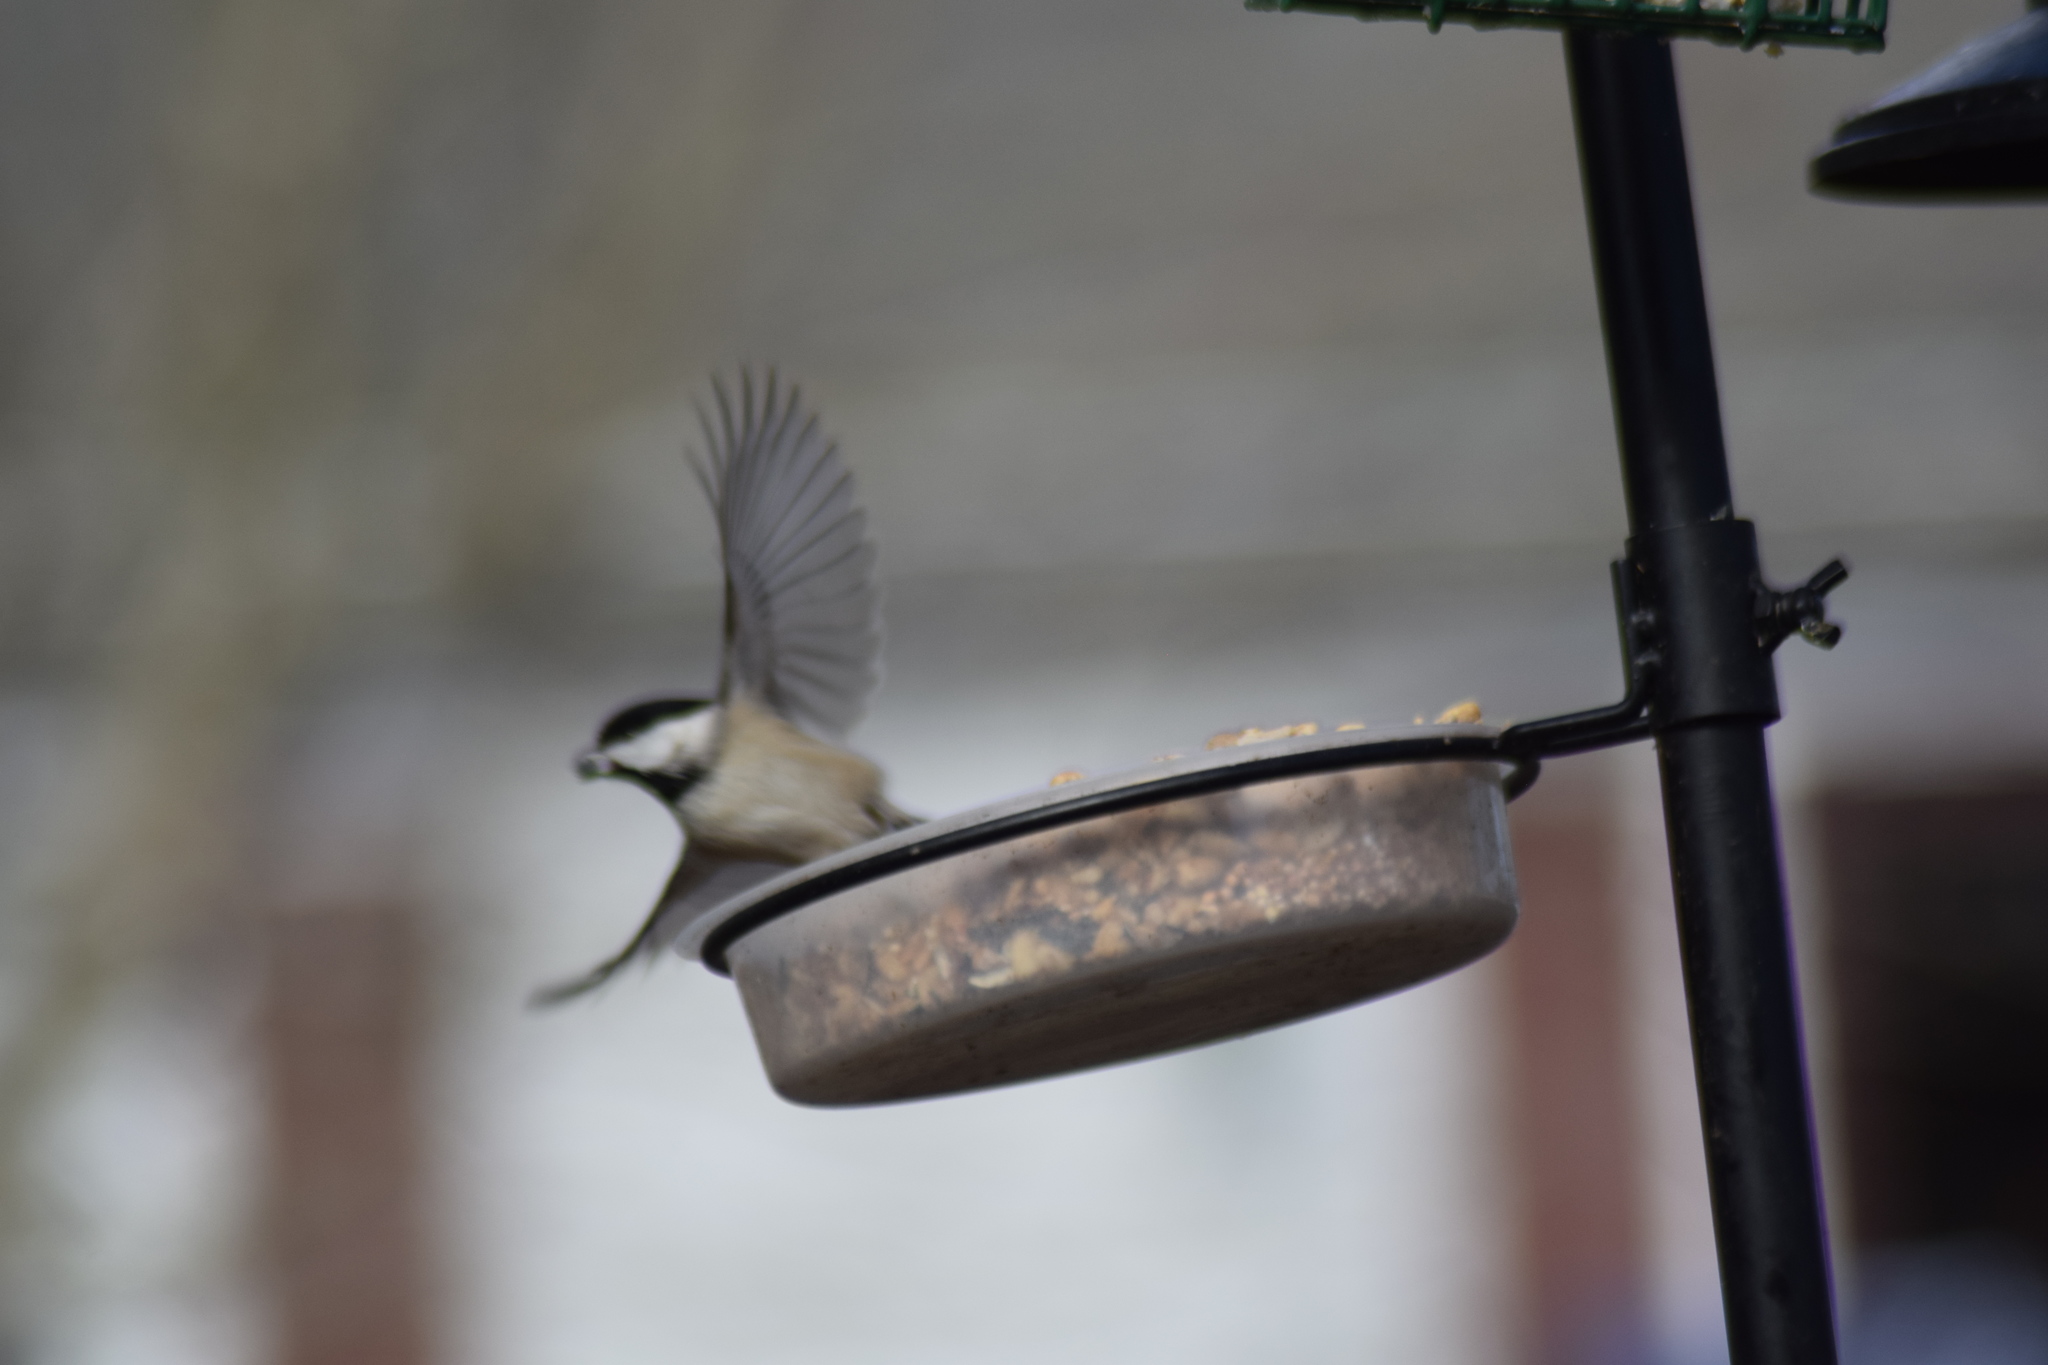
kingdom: Animalia
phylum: Chordata
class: Aves
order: Passeriformes
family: Paridae
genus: Poecile
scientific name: Poecile carolinensis
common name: Carolina chickadee
